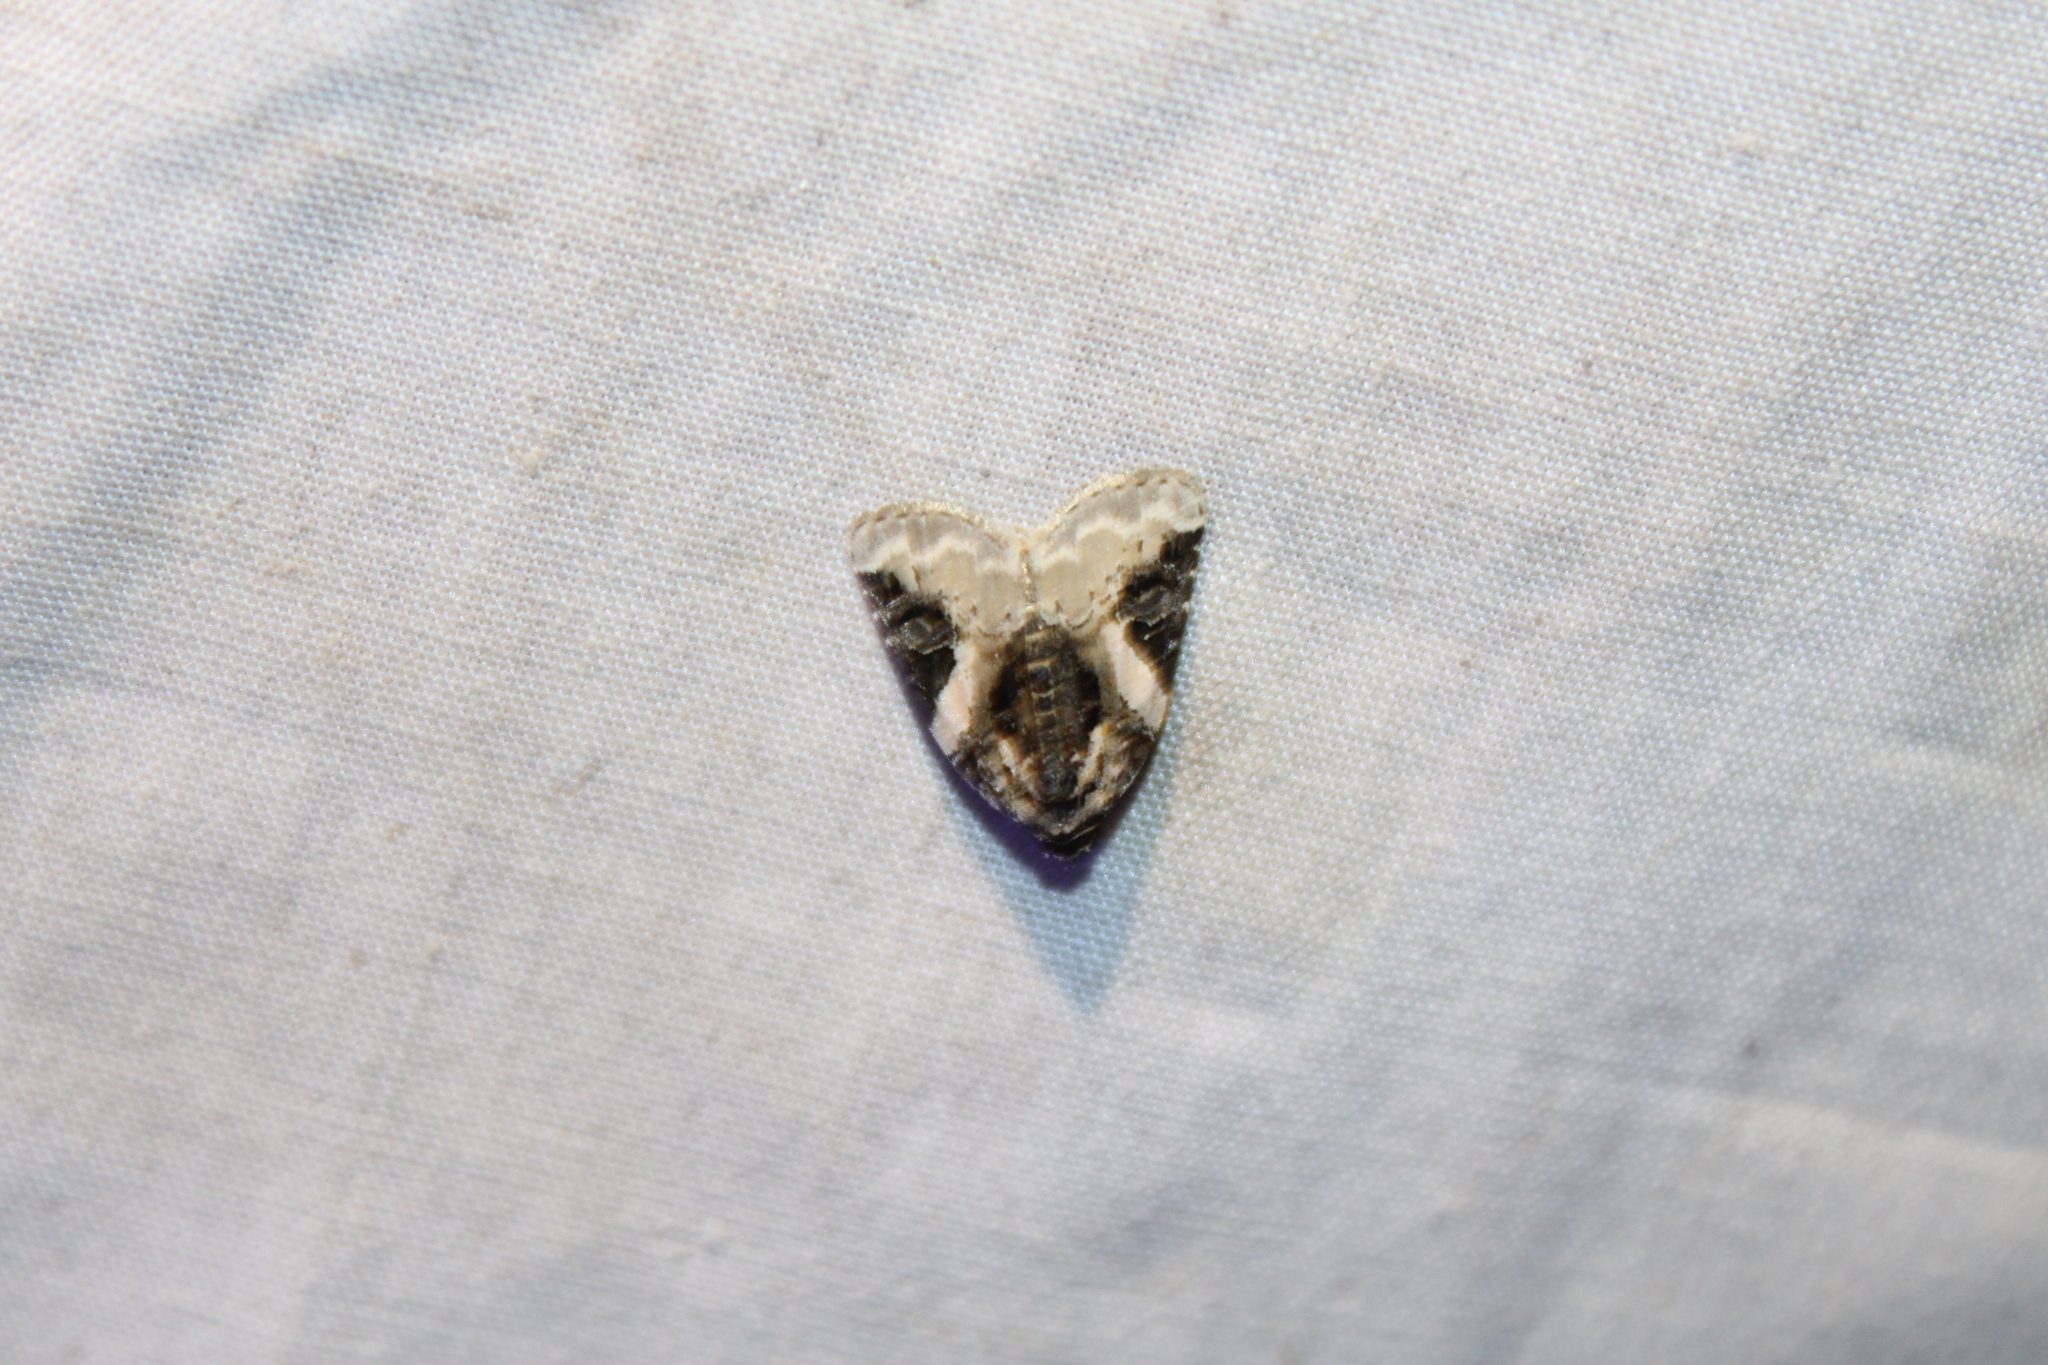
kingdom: Animalia
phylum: Arthropoda
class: Insecta
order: Lepidoptera
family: Noctuidae
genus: Pseudeustrotia
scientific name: Pseudeustrotia carneola
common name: Pink-barred lithacodia moth
